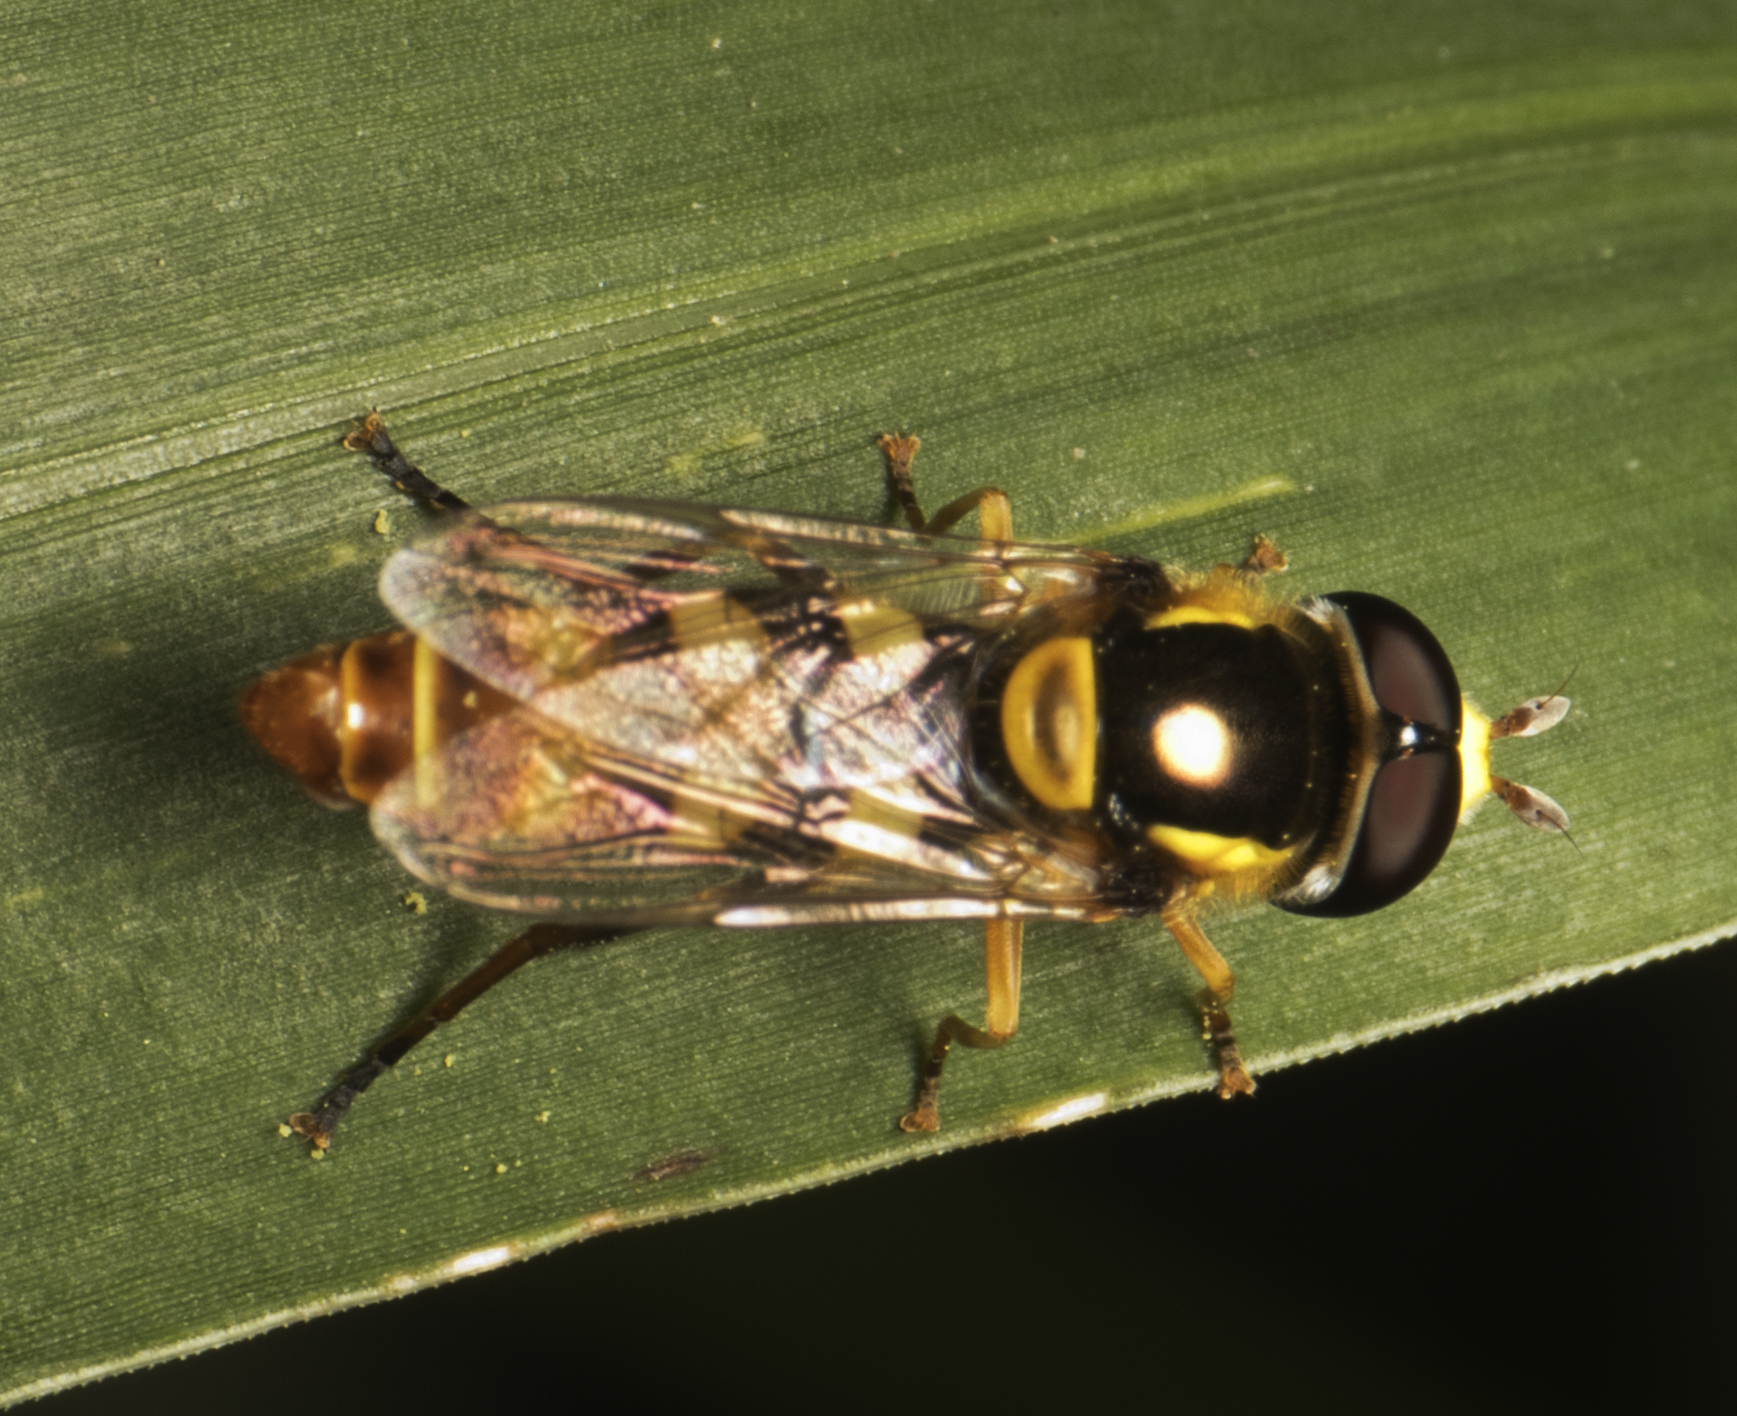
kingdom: Animalia
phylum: Arthropoda
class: Insecta
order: Diptera
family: Syrphidae
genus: Ischiodon
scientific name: Ischiodon scutellaris
